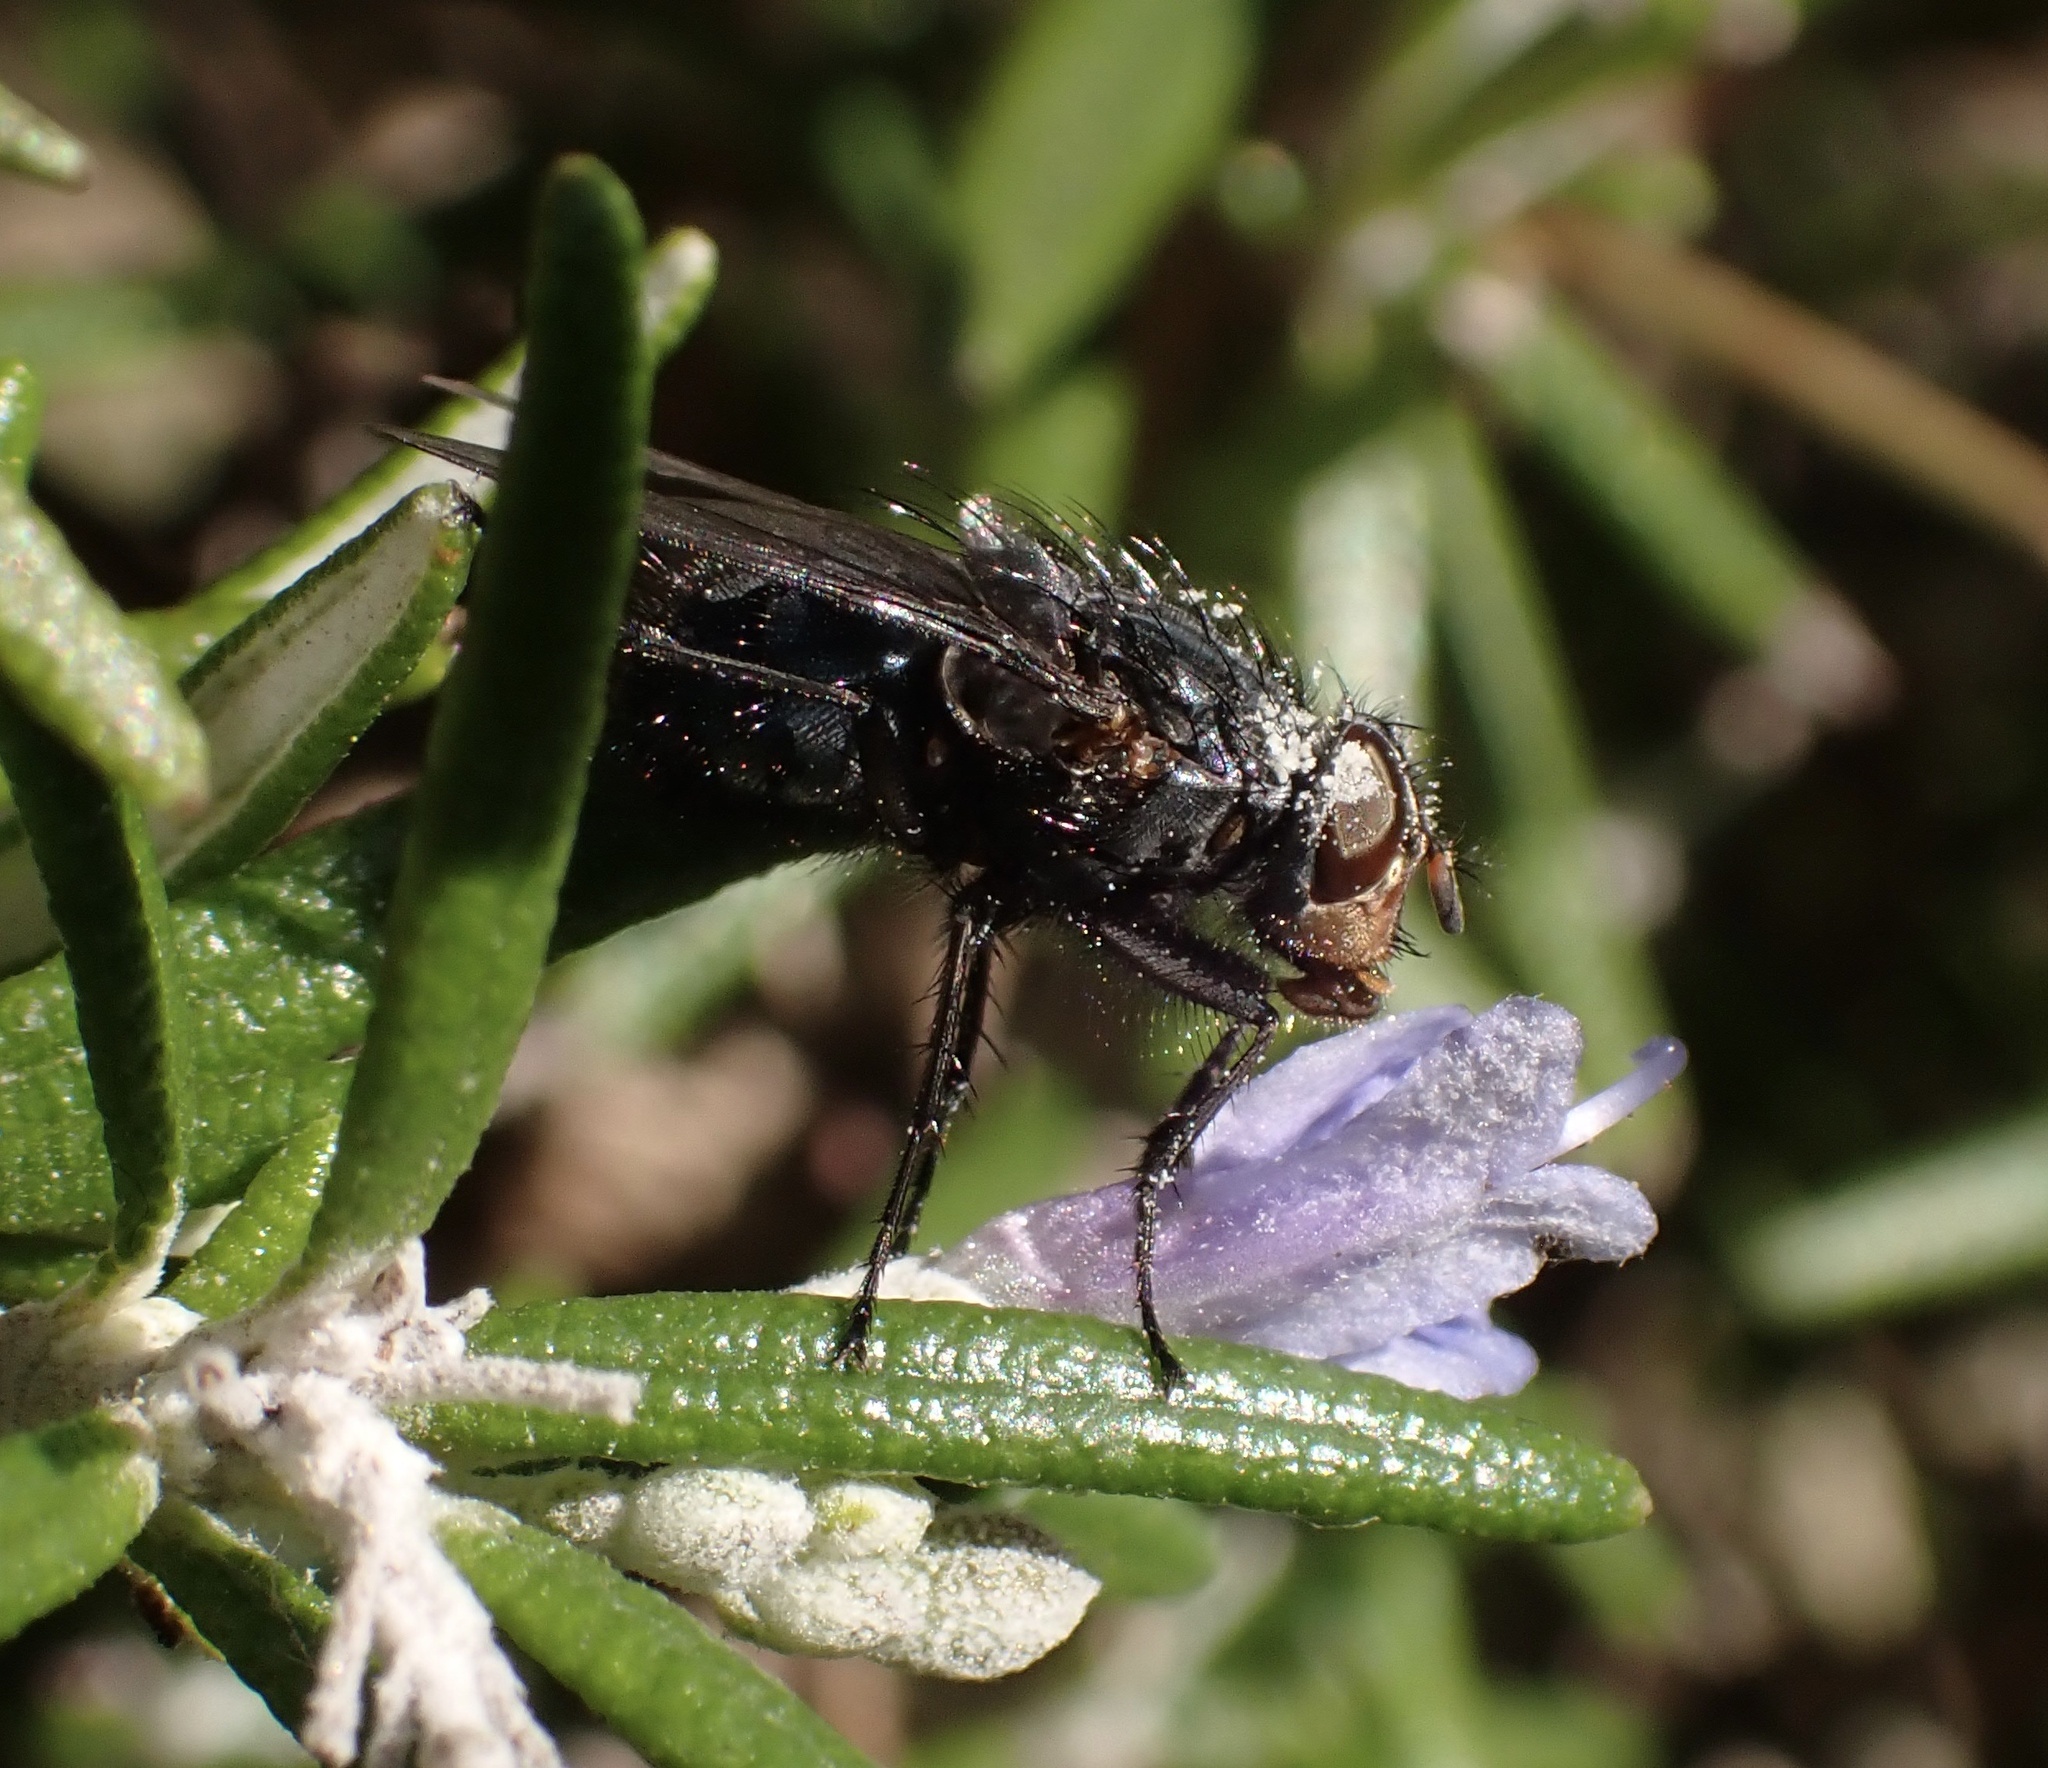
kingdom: Animalia
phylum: Arthropoda
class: Insecta
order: Diptera
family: Calliphoridae
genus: Calliphora
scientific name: Calliphora vicina
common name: Common blow flie
